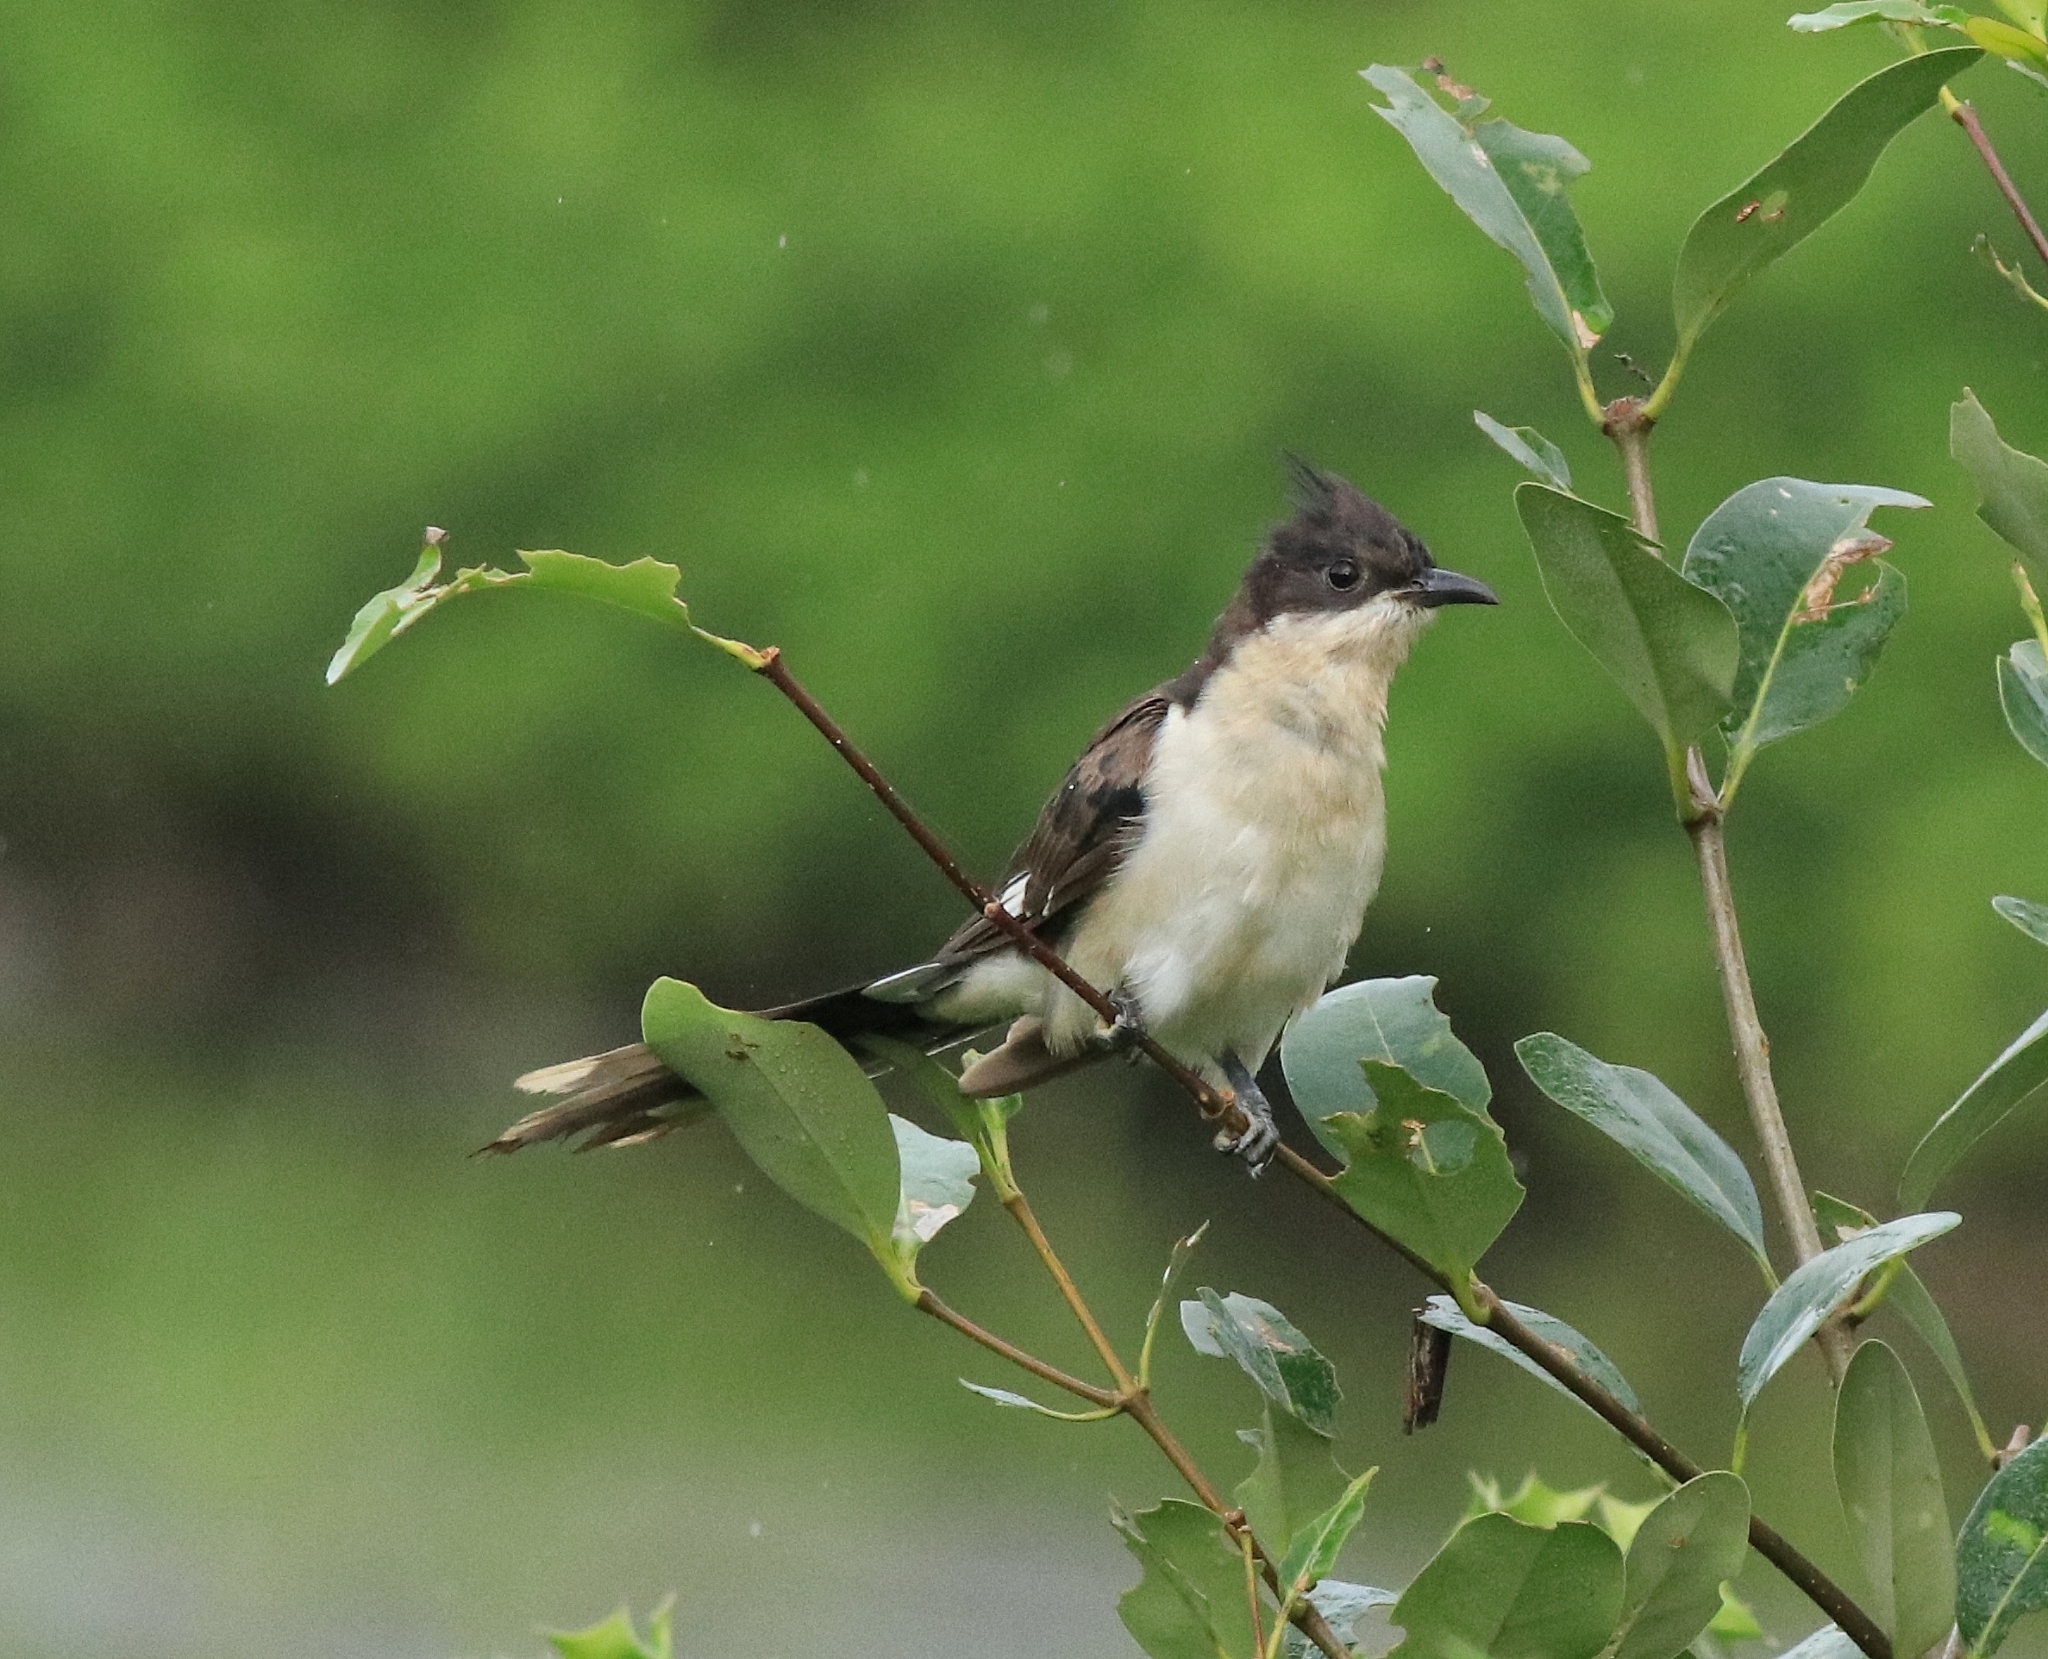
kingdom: Animalia
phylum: Chordata
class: Aves
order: Cuculiformes
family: Cuculidae
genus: Clamator
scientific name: Clamator jacobinus
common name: Jacobin cuckoo
